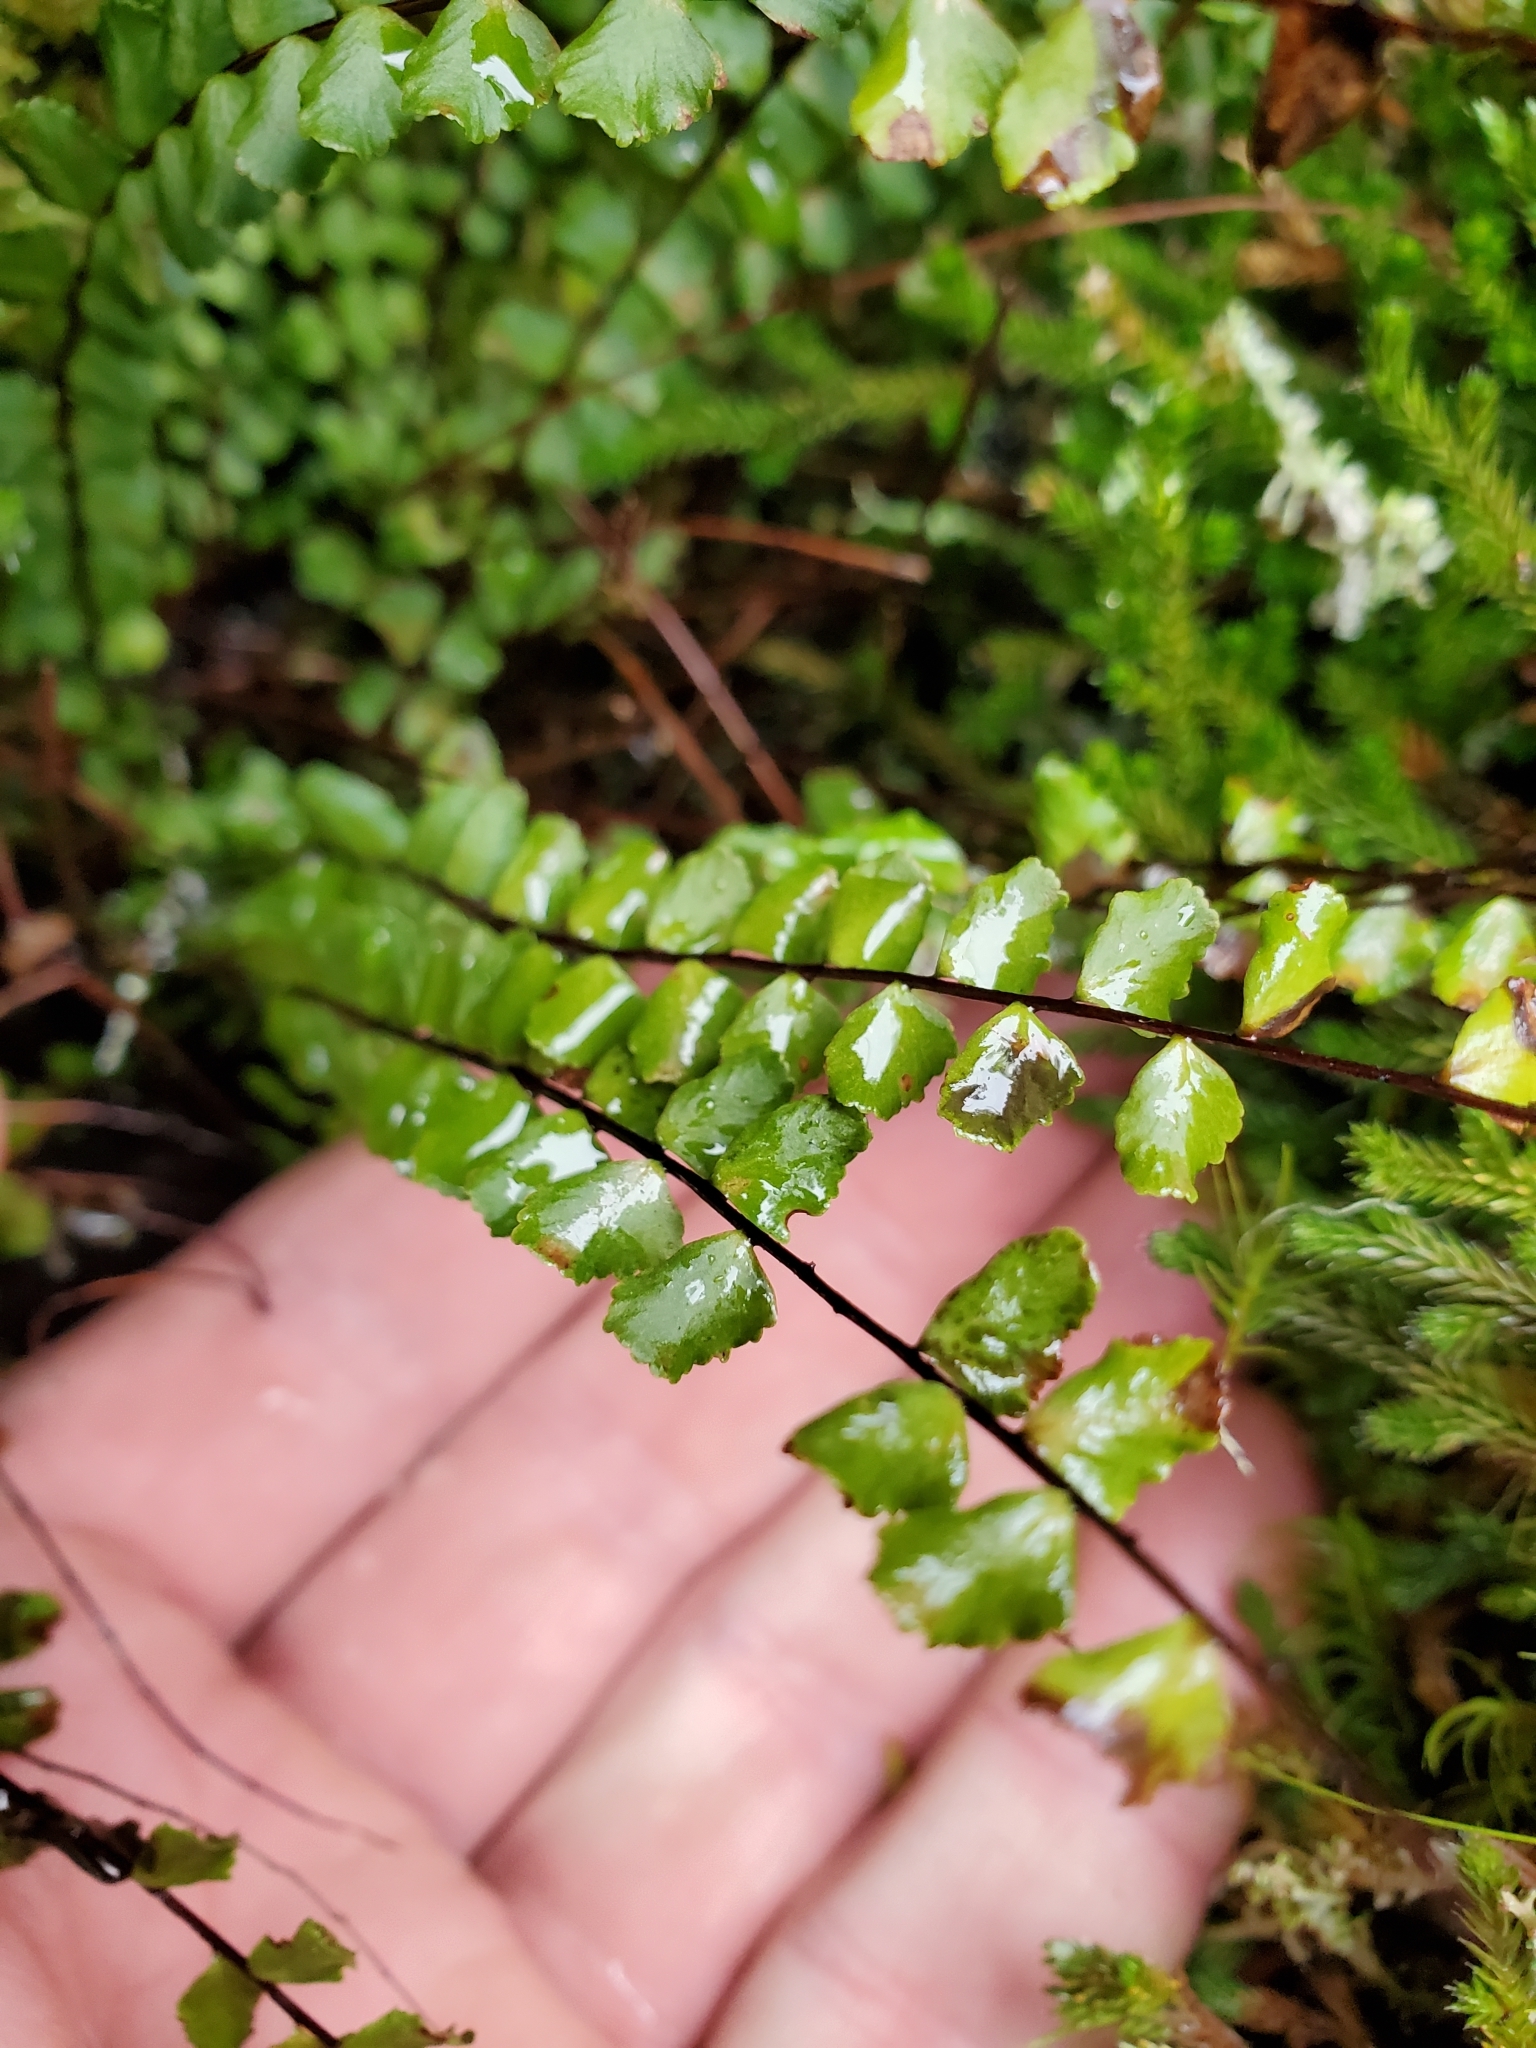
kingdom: Plantae
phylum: Tracheophyta
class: Polypodiopsida
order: Polypodiales
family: Aspleniaceae
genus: Asplenium
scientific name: Asplenium trichomanes
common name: Maidenhair spleenwort
